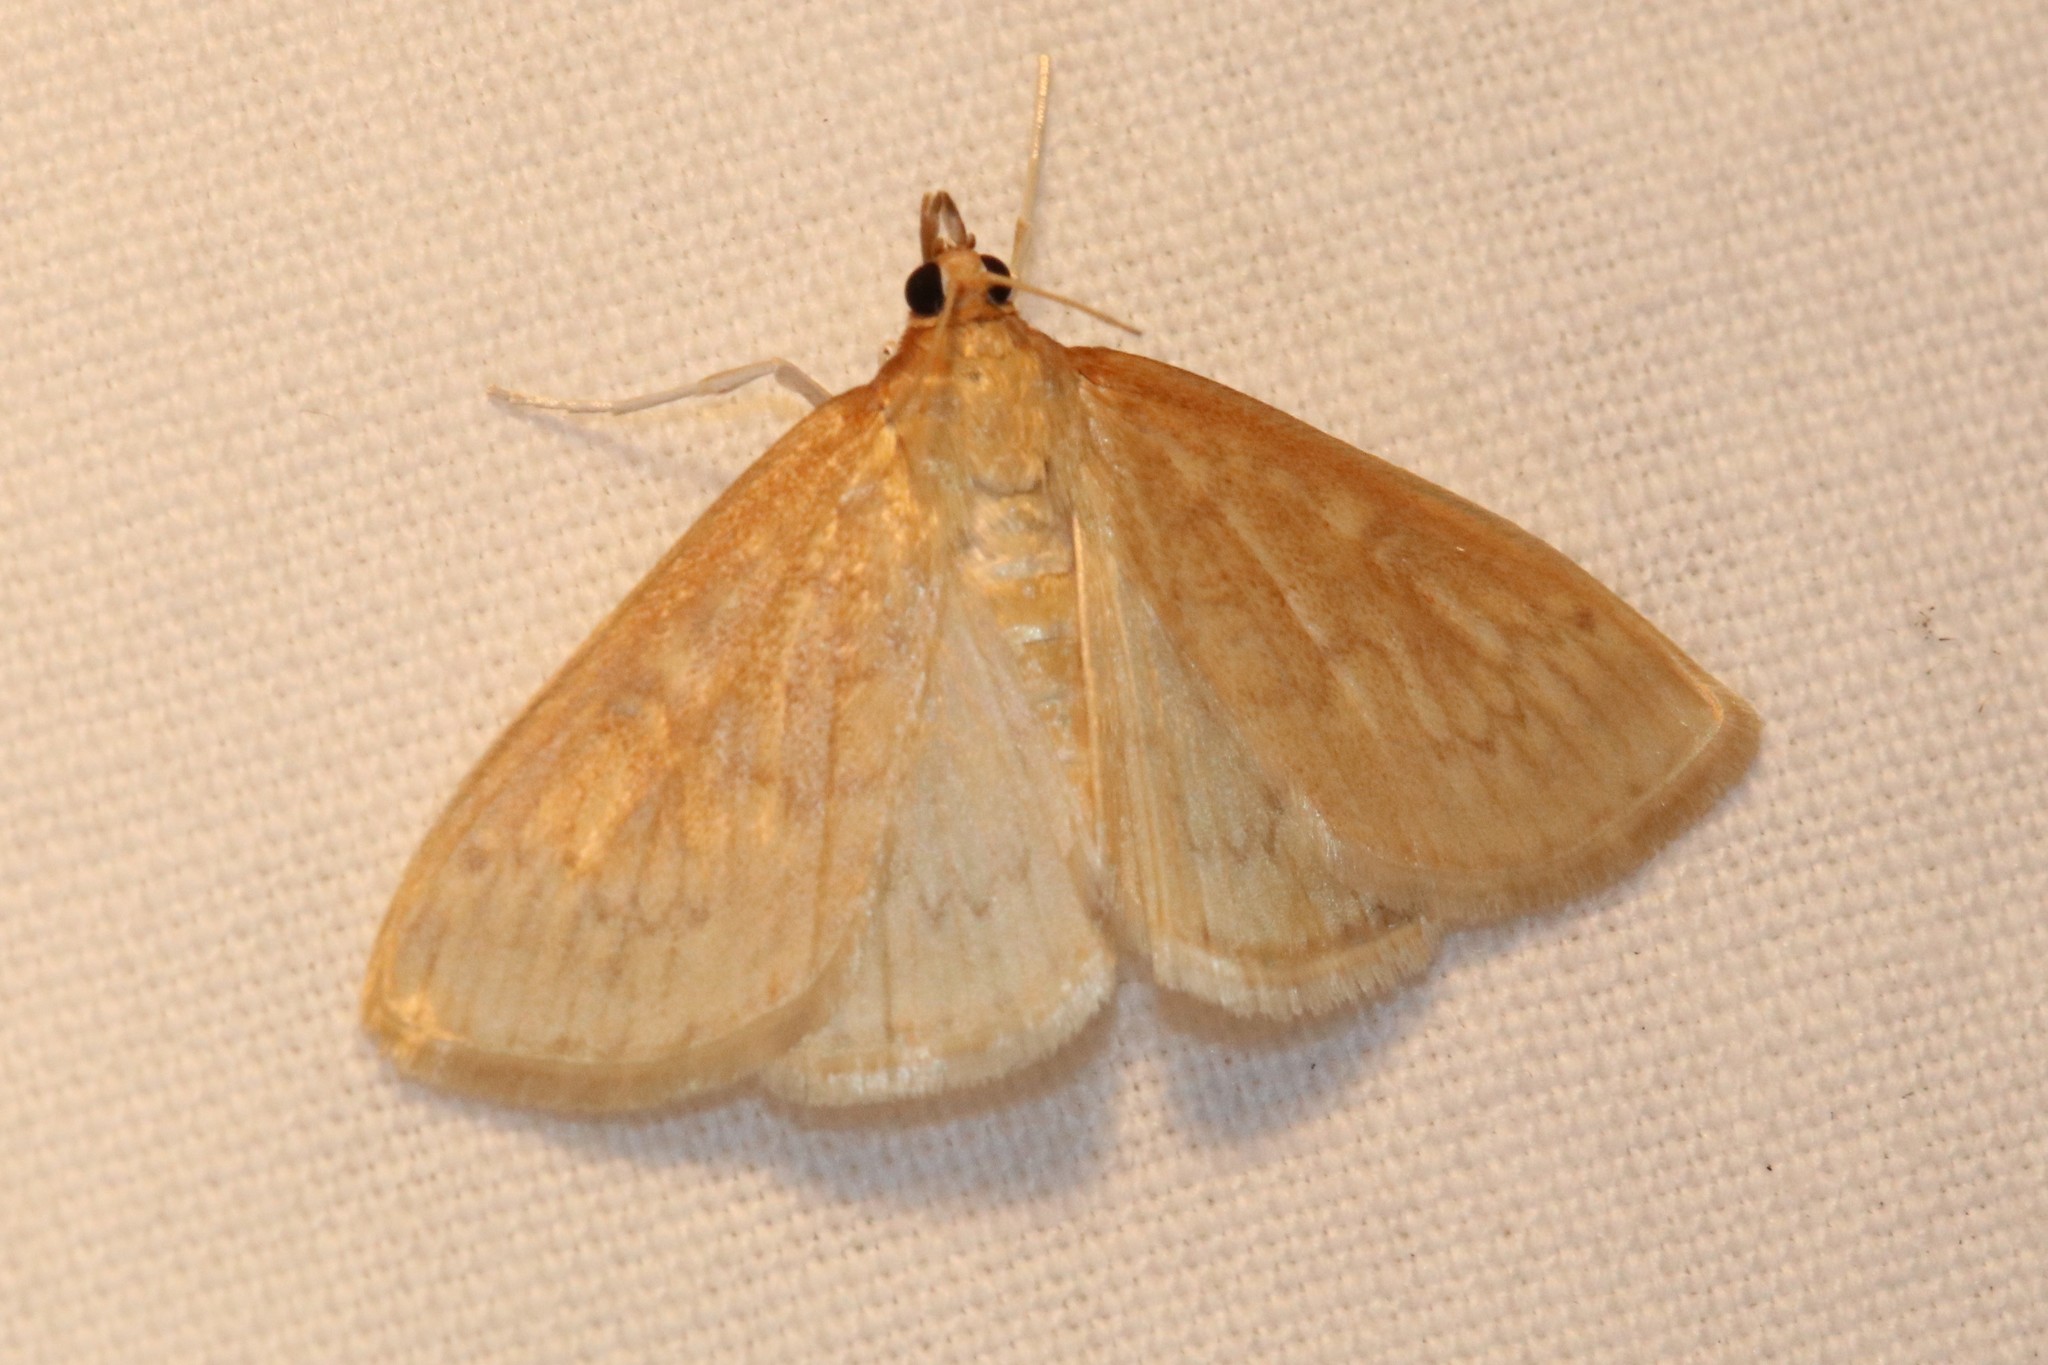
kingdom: Animalia
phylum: Arthropoda
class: Insecta
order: Lepidoptera
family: Crambidae
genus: Anania
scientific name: Anania Framinghamia helvalis
